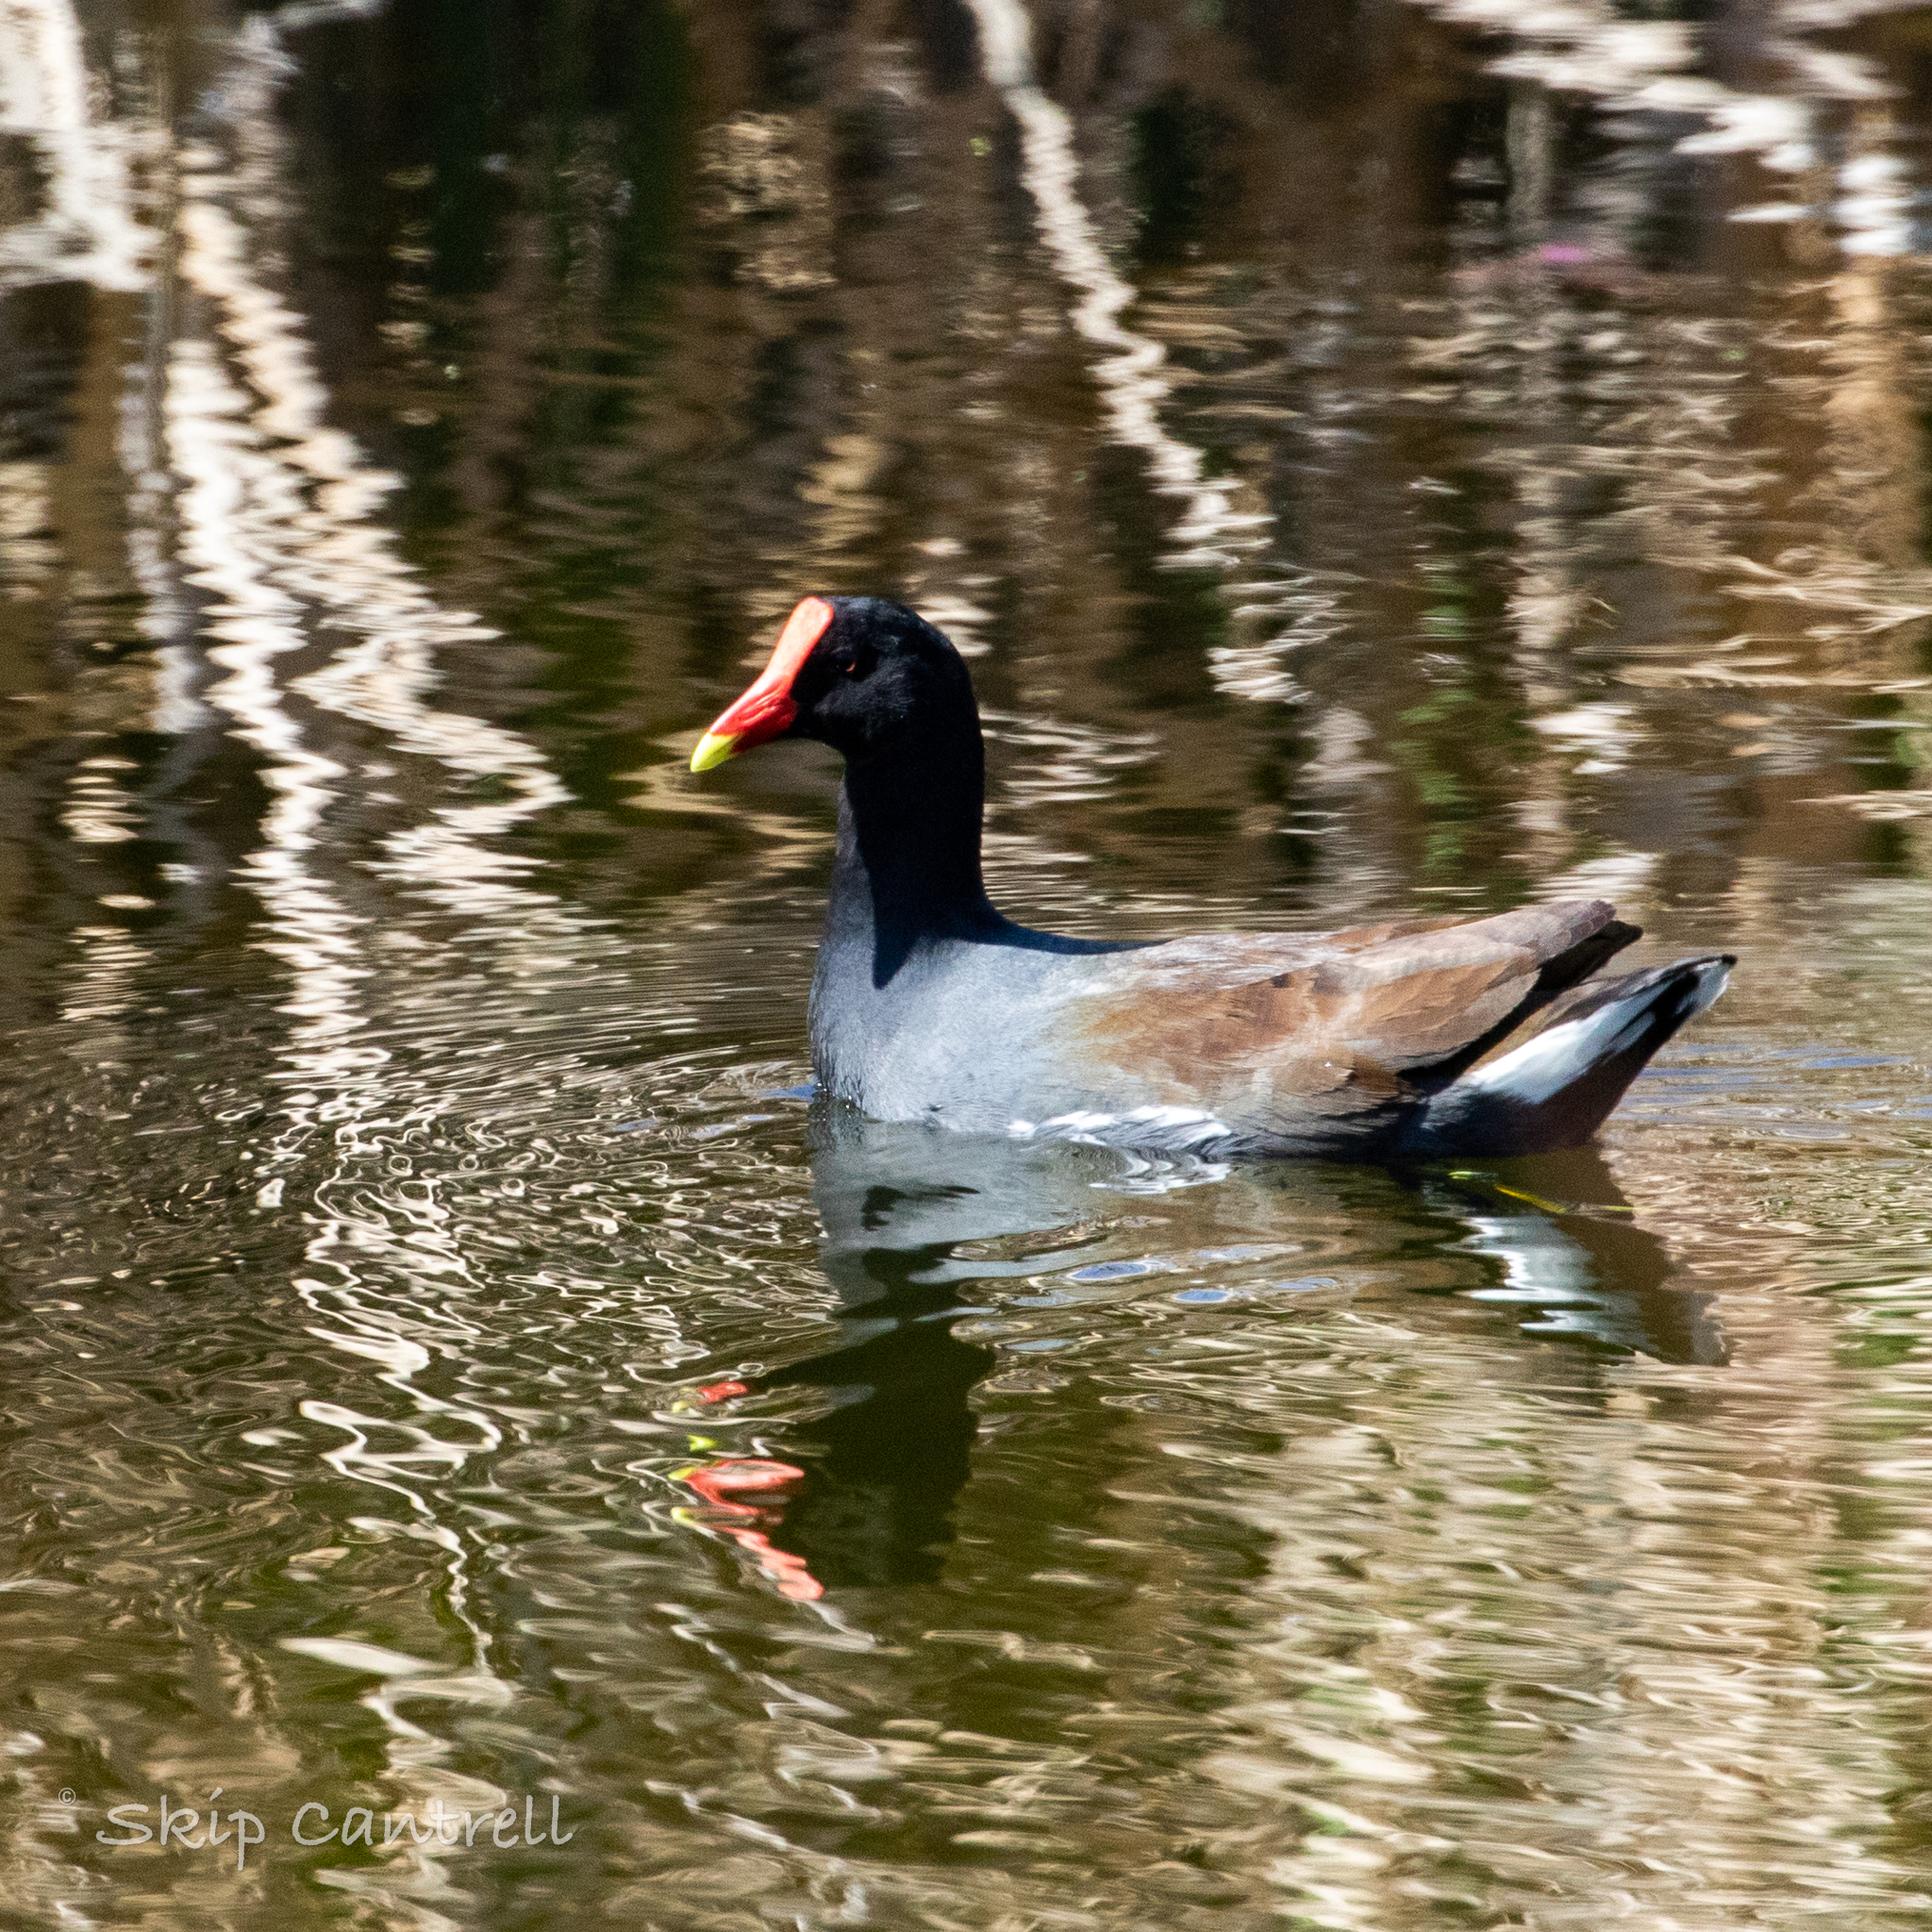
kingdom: Animalia
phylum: Chordata
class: Aves
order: Gruiformes
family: Rallidae
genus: Gallinula
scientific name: Gallinula chloropus
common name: Common moorhen
